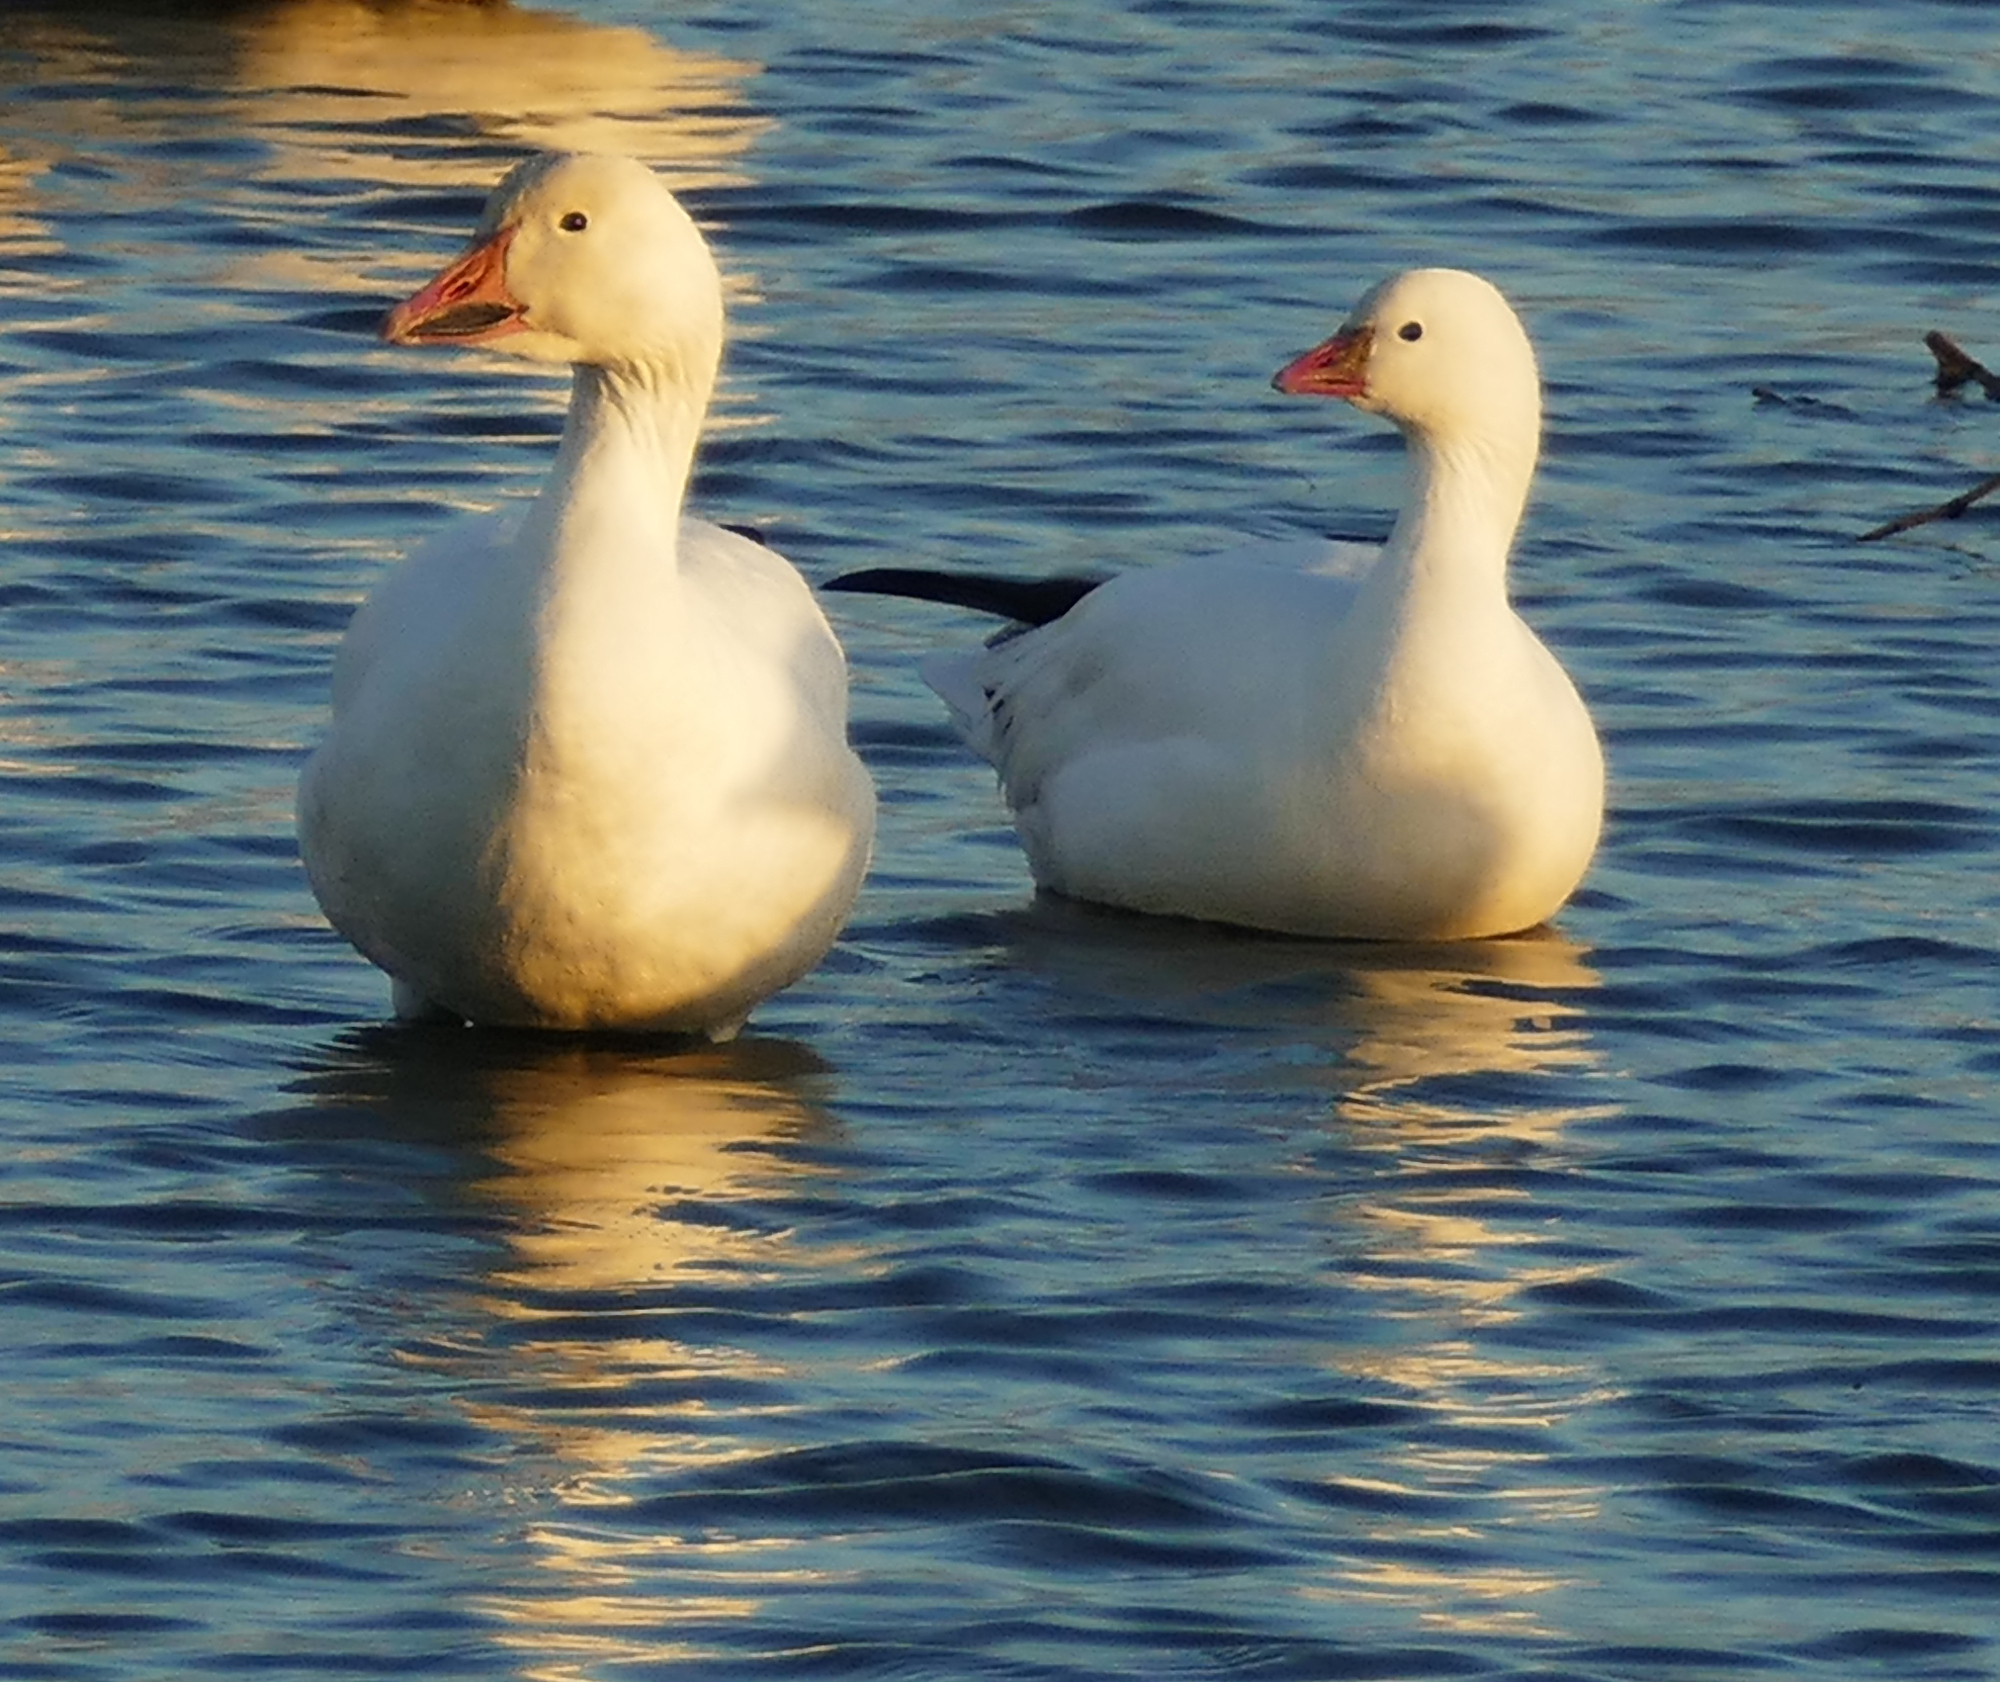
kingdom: Animalia
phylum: Chordata
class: Aves
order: Anseriformes
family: Anatidae
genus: Anser
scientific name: Anser caerulescens
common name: Snow goose
